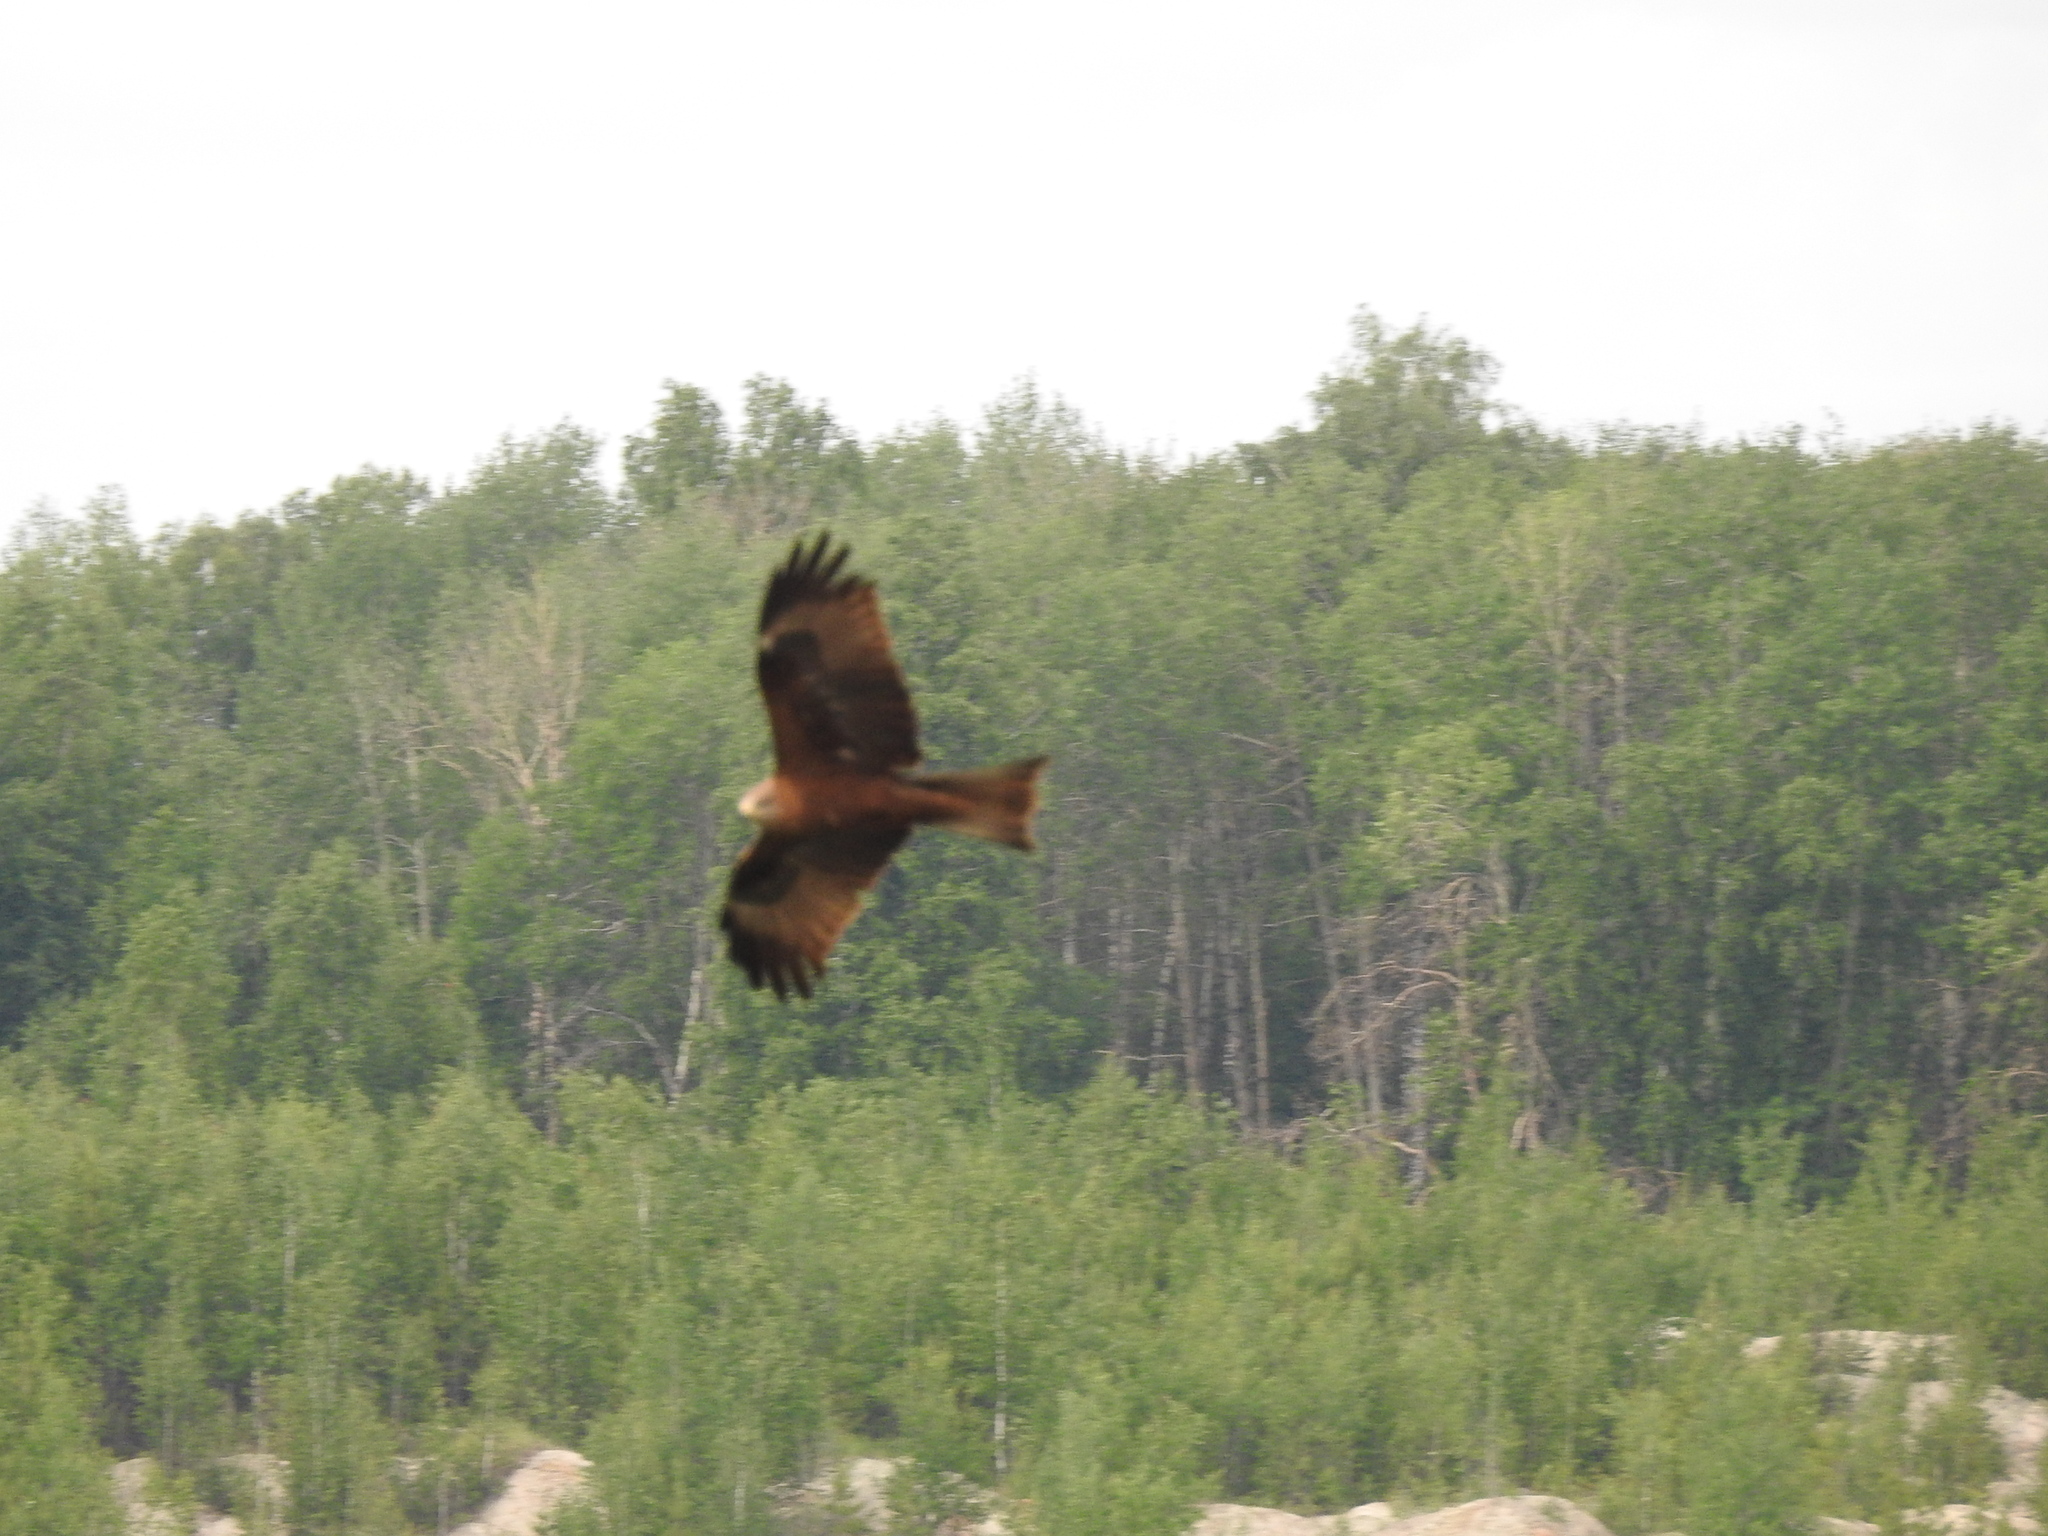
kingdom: Animalia
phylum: Chordata
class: Aves
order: Accipitriformes
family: Accipitridae
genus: Milvus
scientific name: Milvus migrans
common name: Black kite
